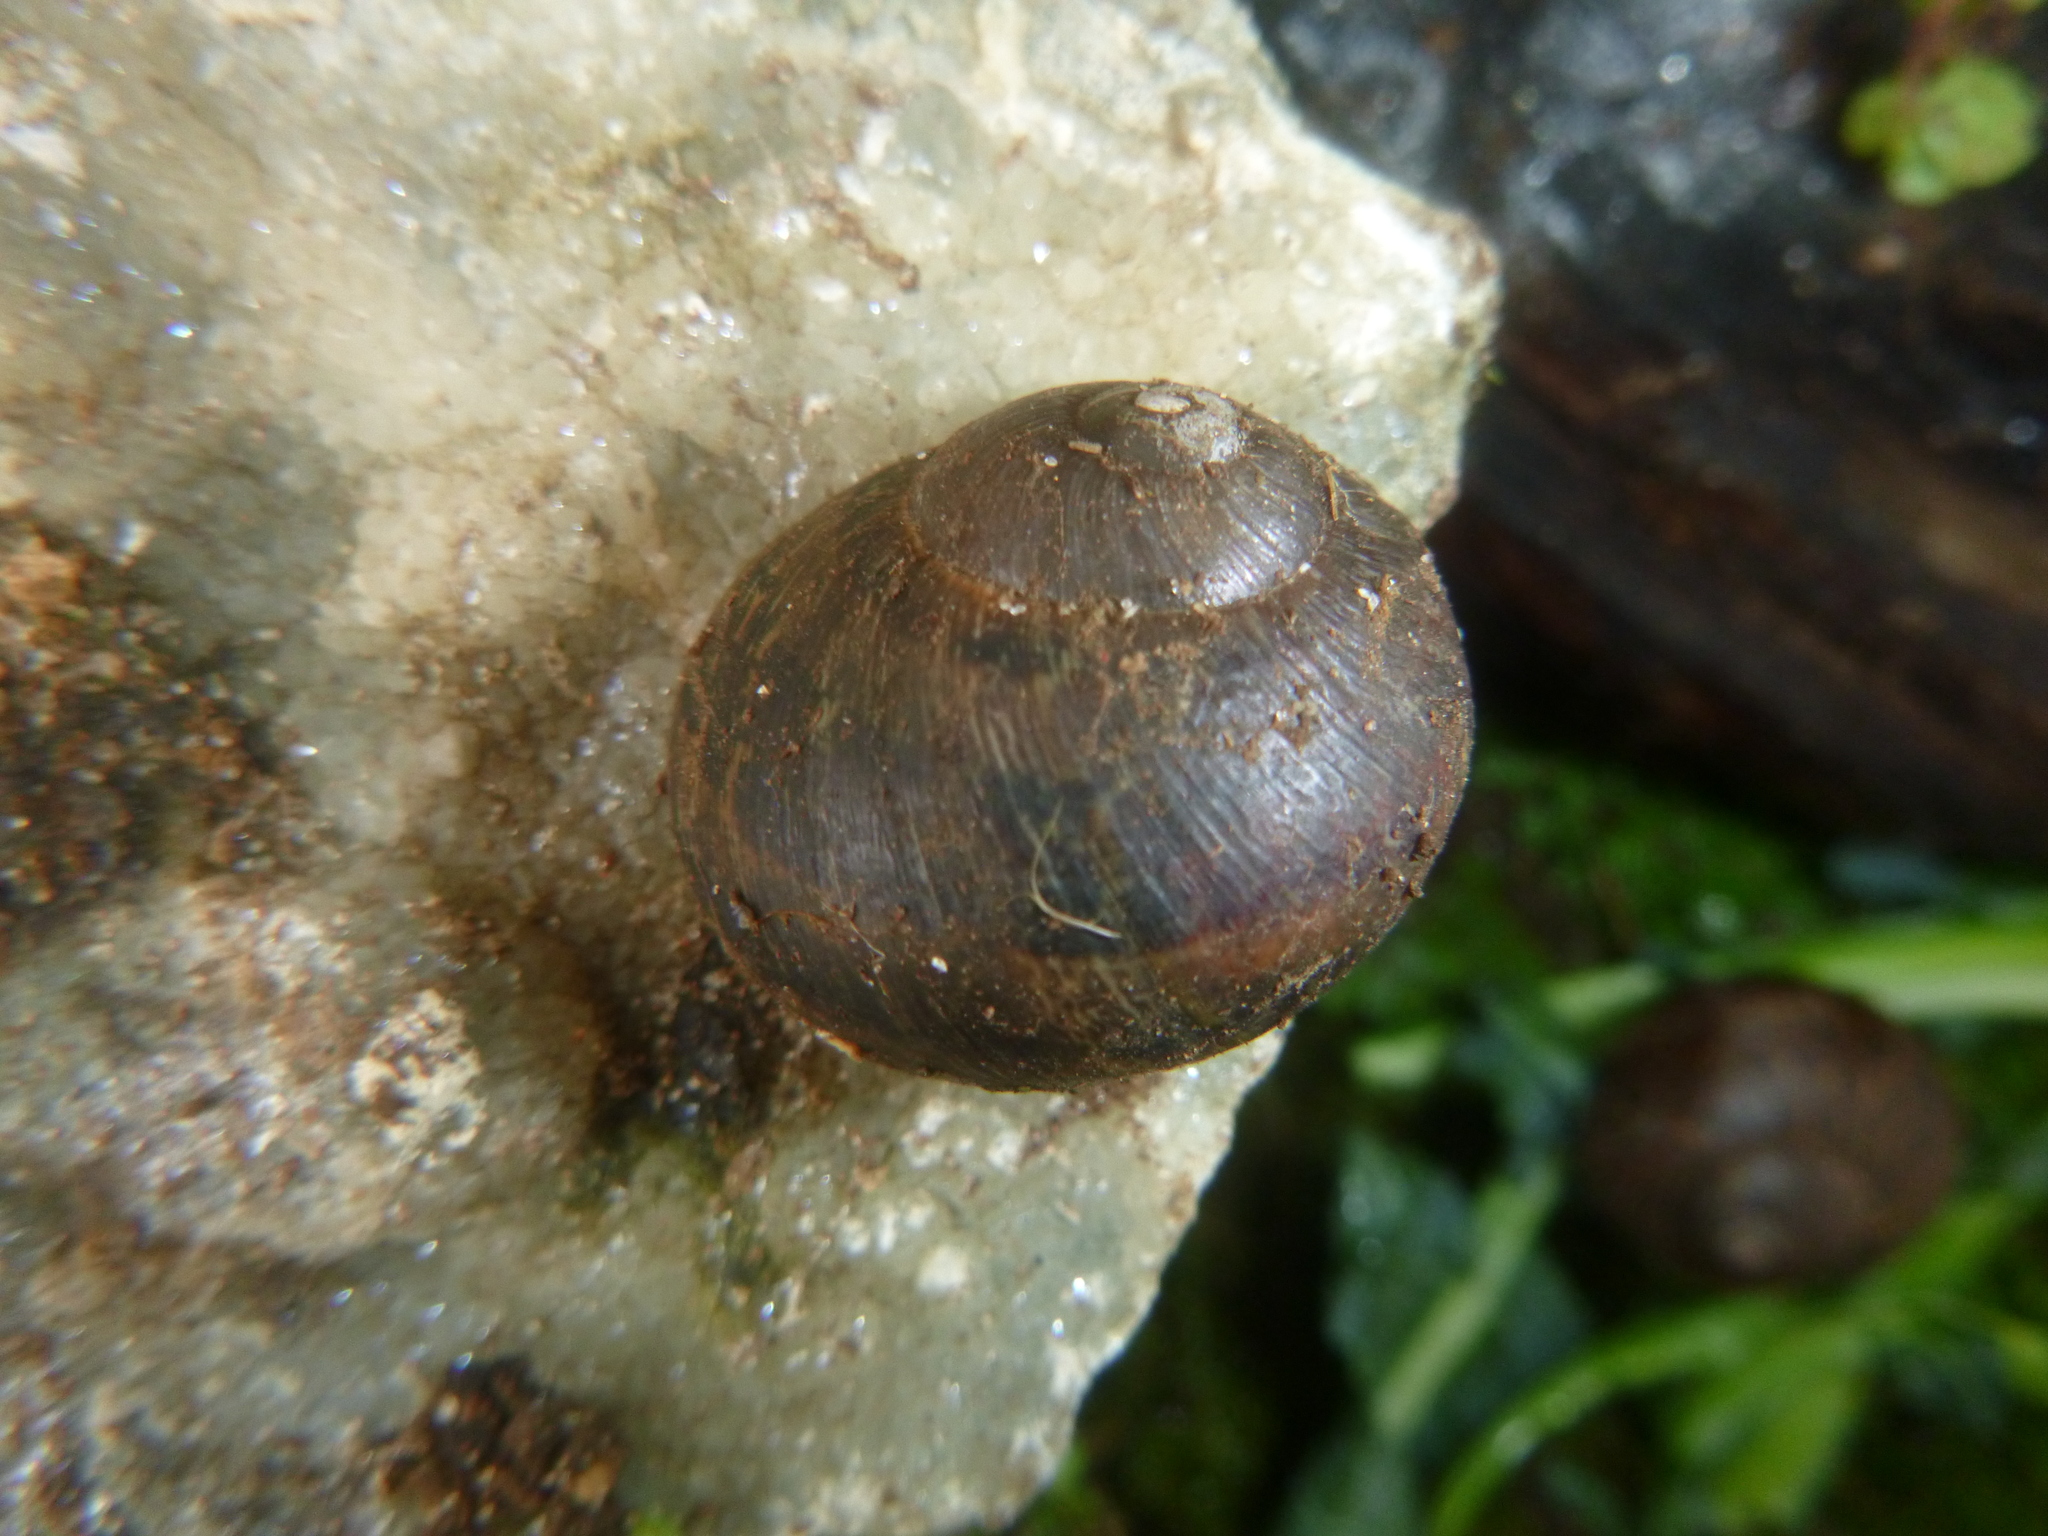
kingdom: Animalia
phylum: Mollusca
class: Gastropoda
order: Stylommatophora
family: Helicidae
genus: Cornu
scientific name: Cornu aspersum
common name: Brown garden snail
